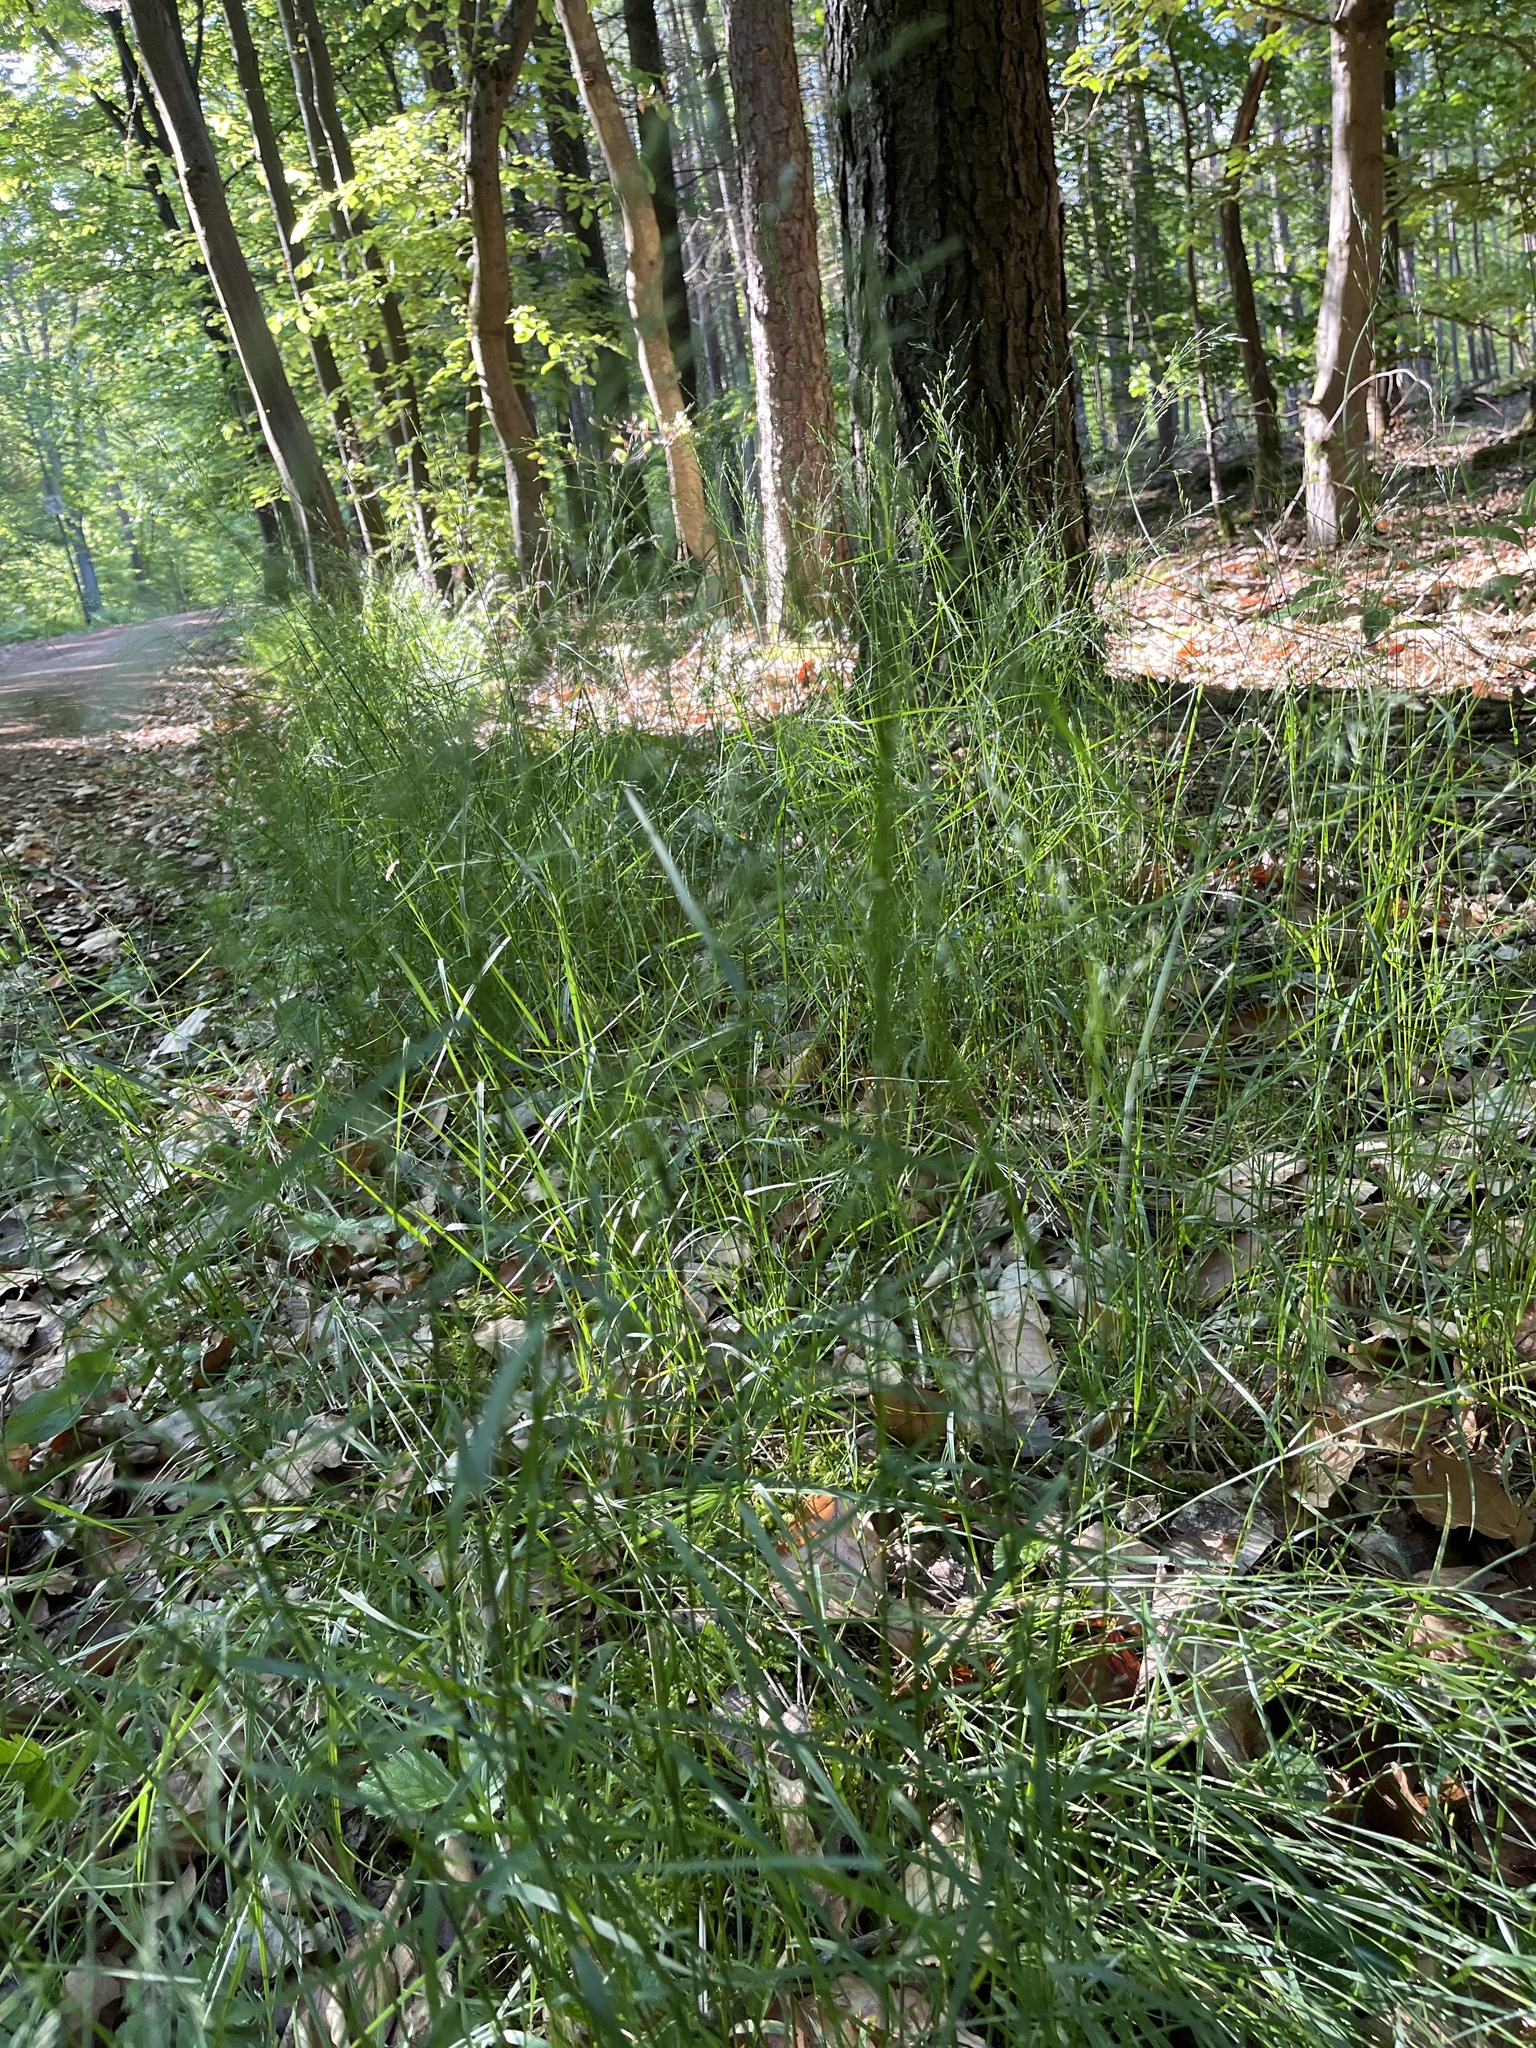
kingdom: Plantae
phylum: Tracheophyta
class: Liliopsida
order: Poales
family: Poaceae
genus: Poa
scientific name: Poa nemoralis
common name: Wood bluegrass
